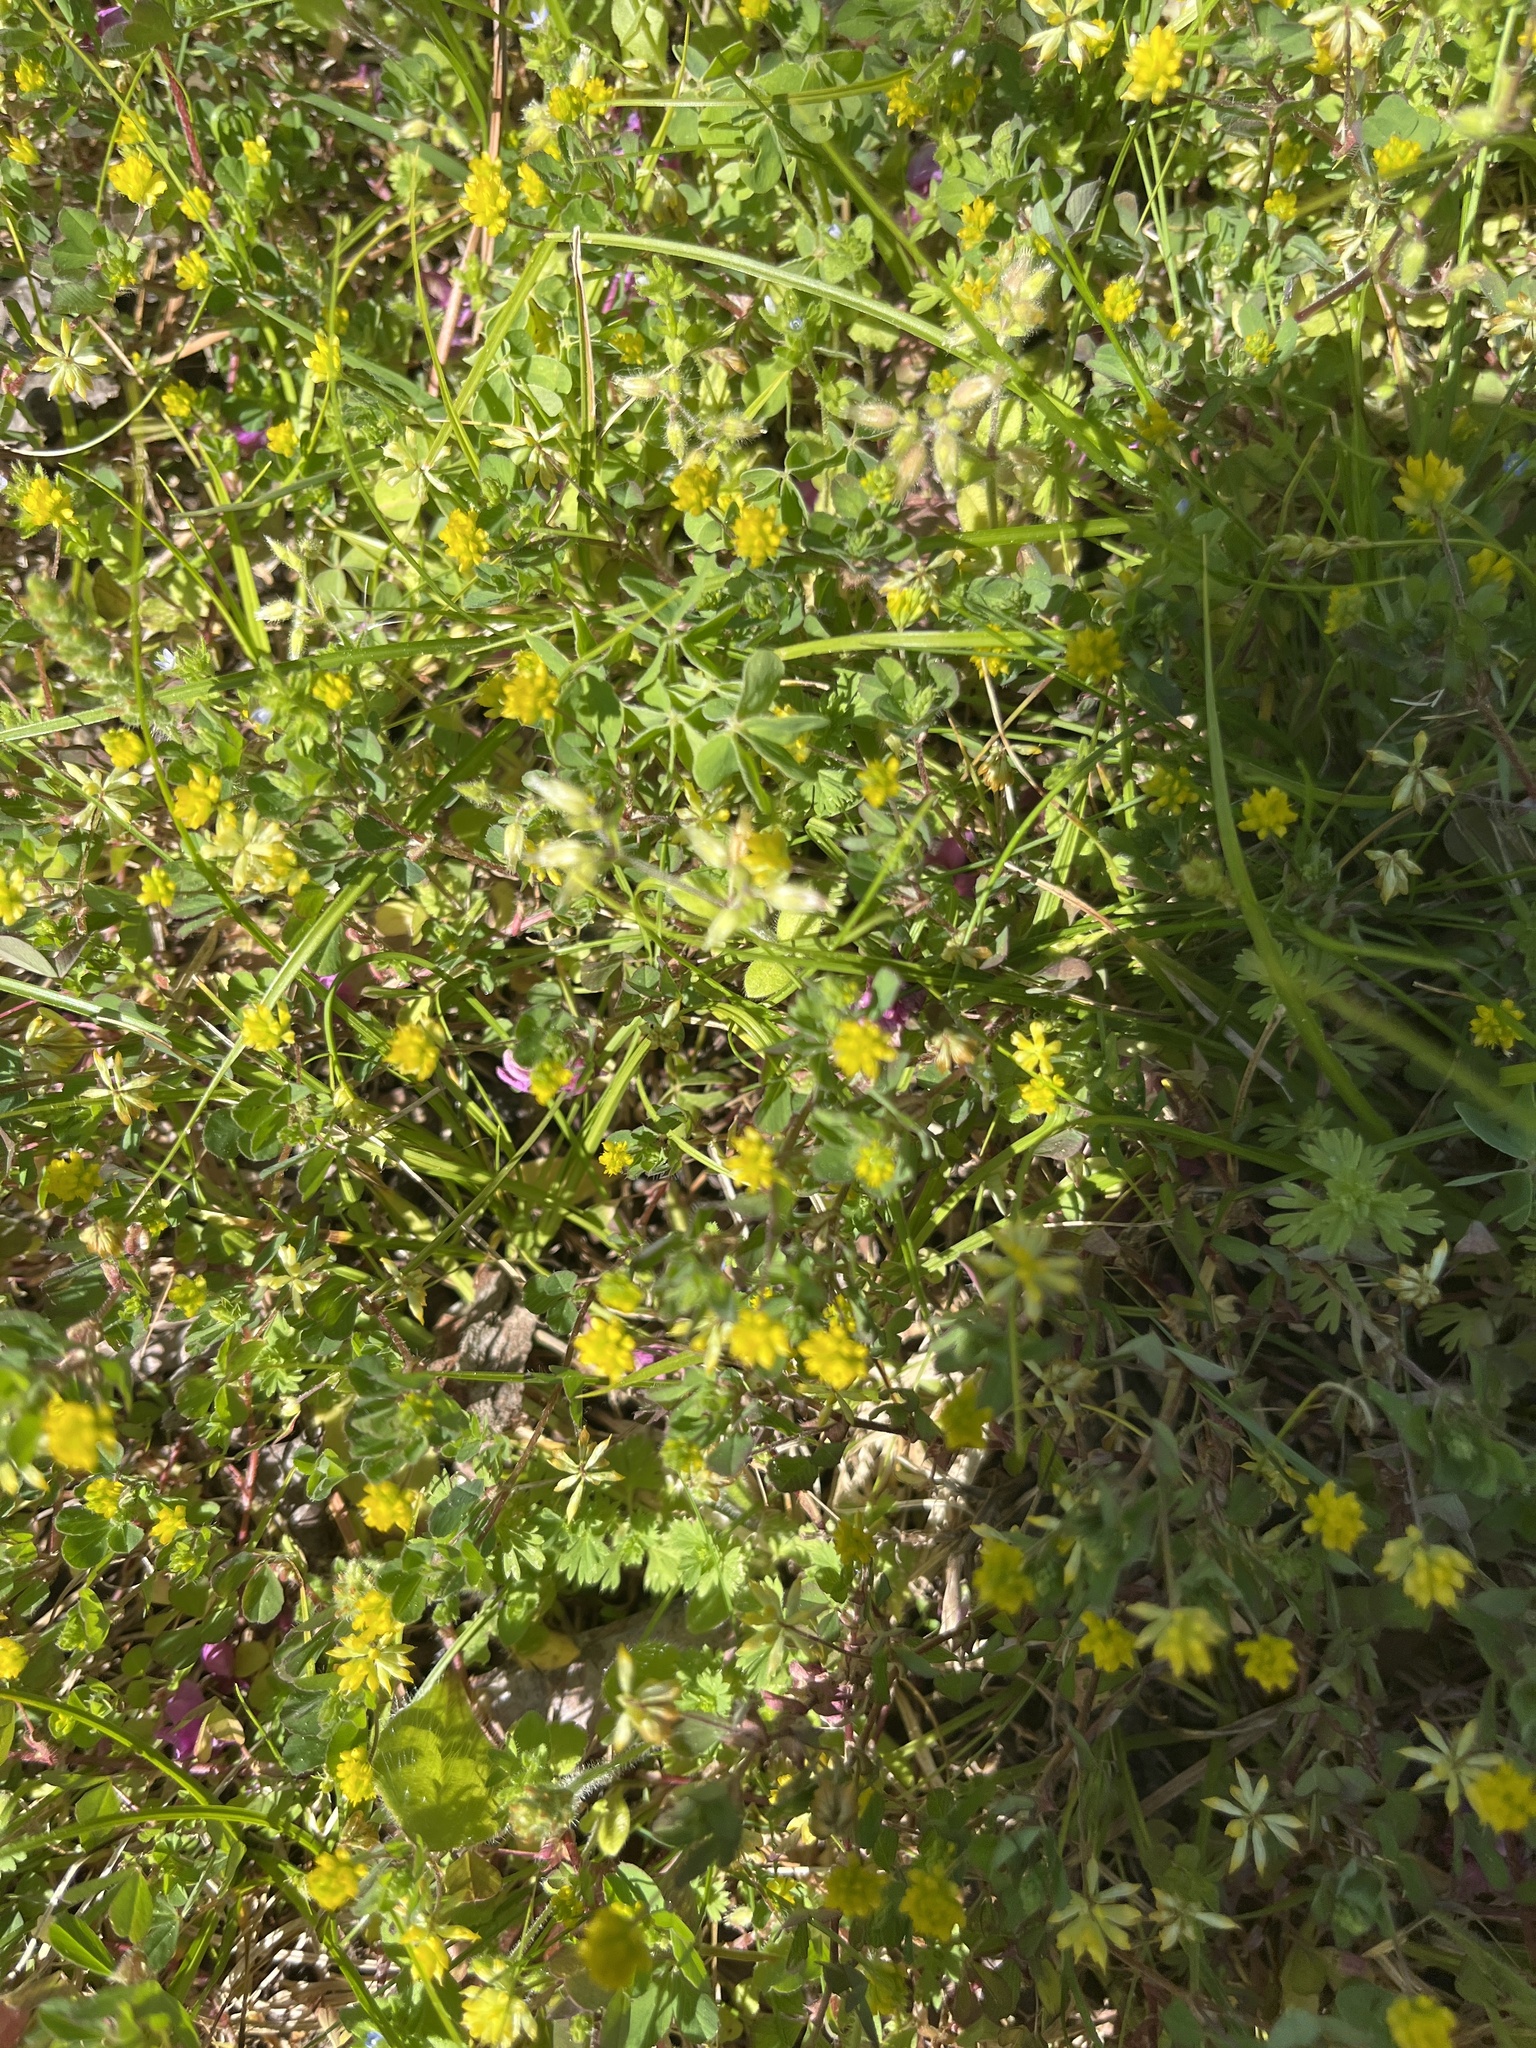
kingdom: Plantae
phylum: Tracheophyta
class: Magnoliopsida
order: Fabales
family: Fabaceae
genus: Trifolium
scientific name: Trifolium dubium
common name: Suckling clover
